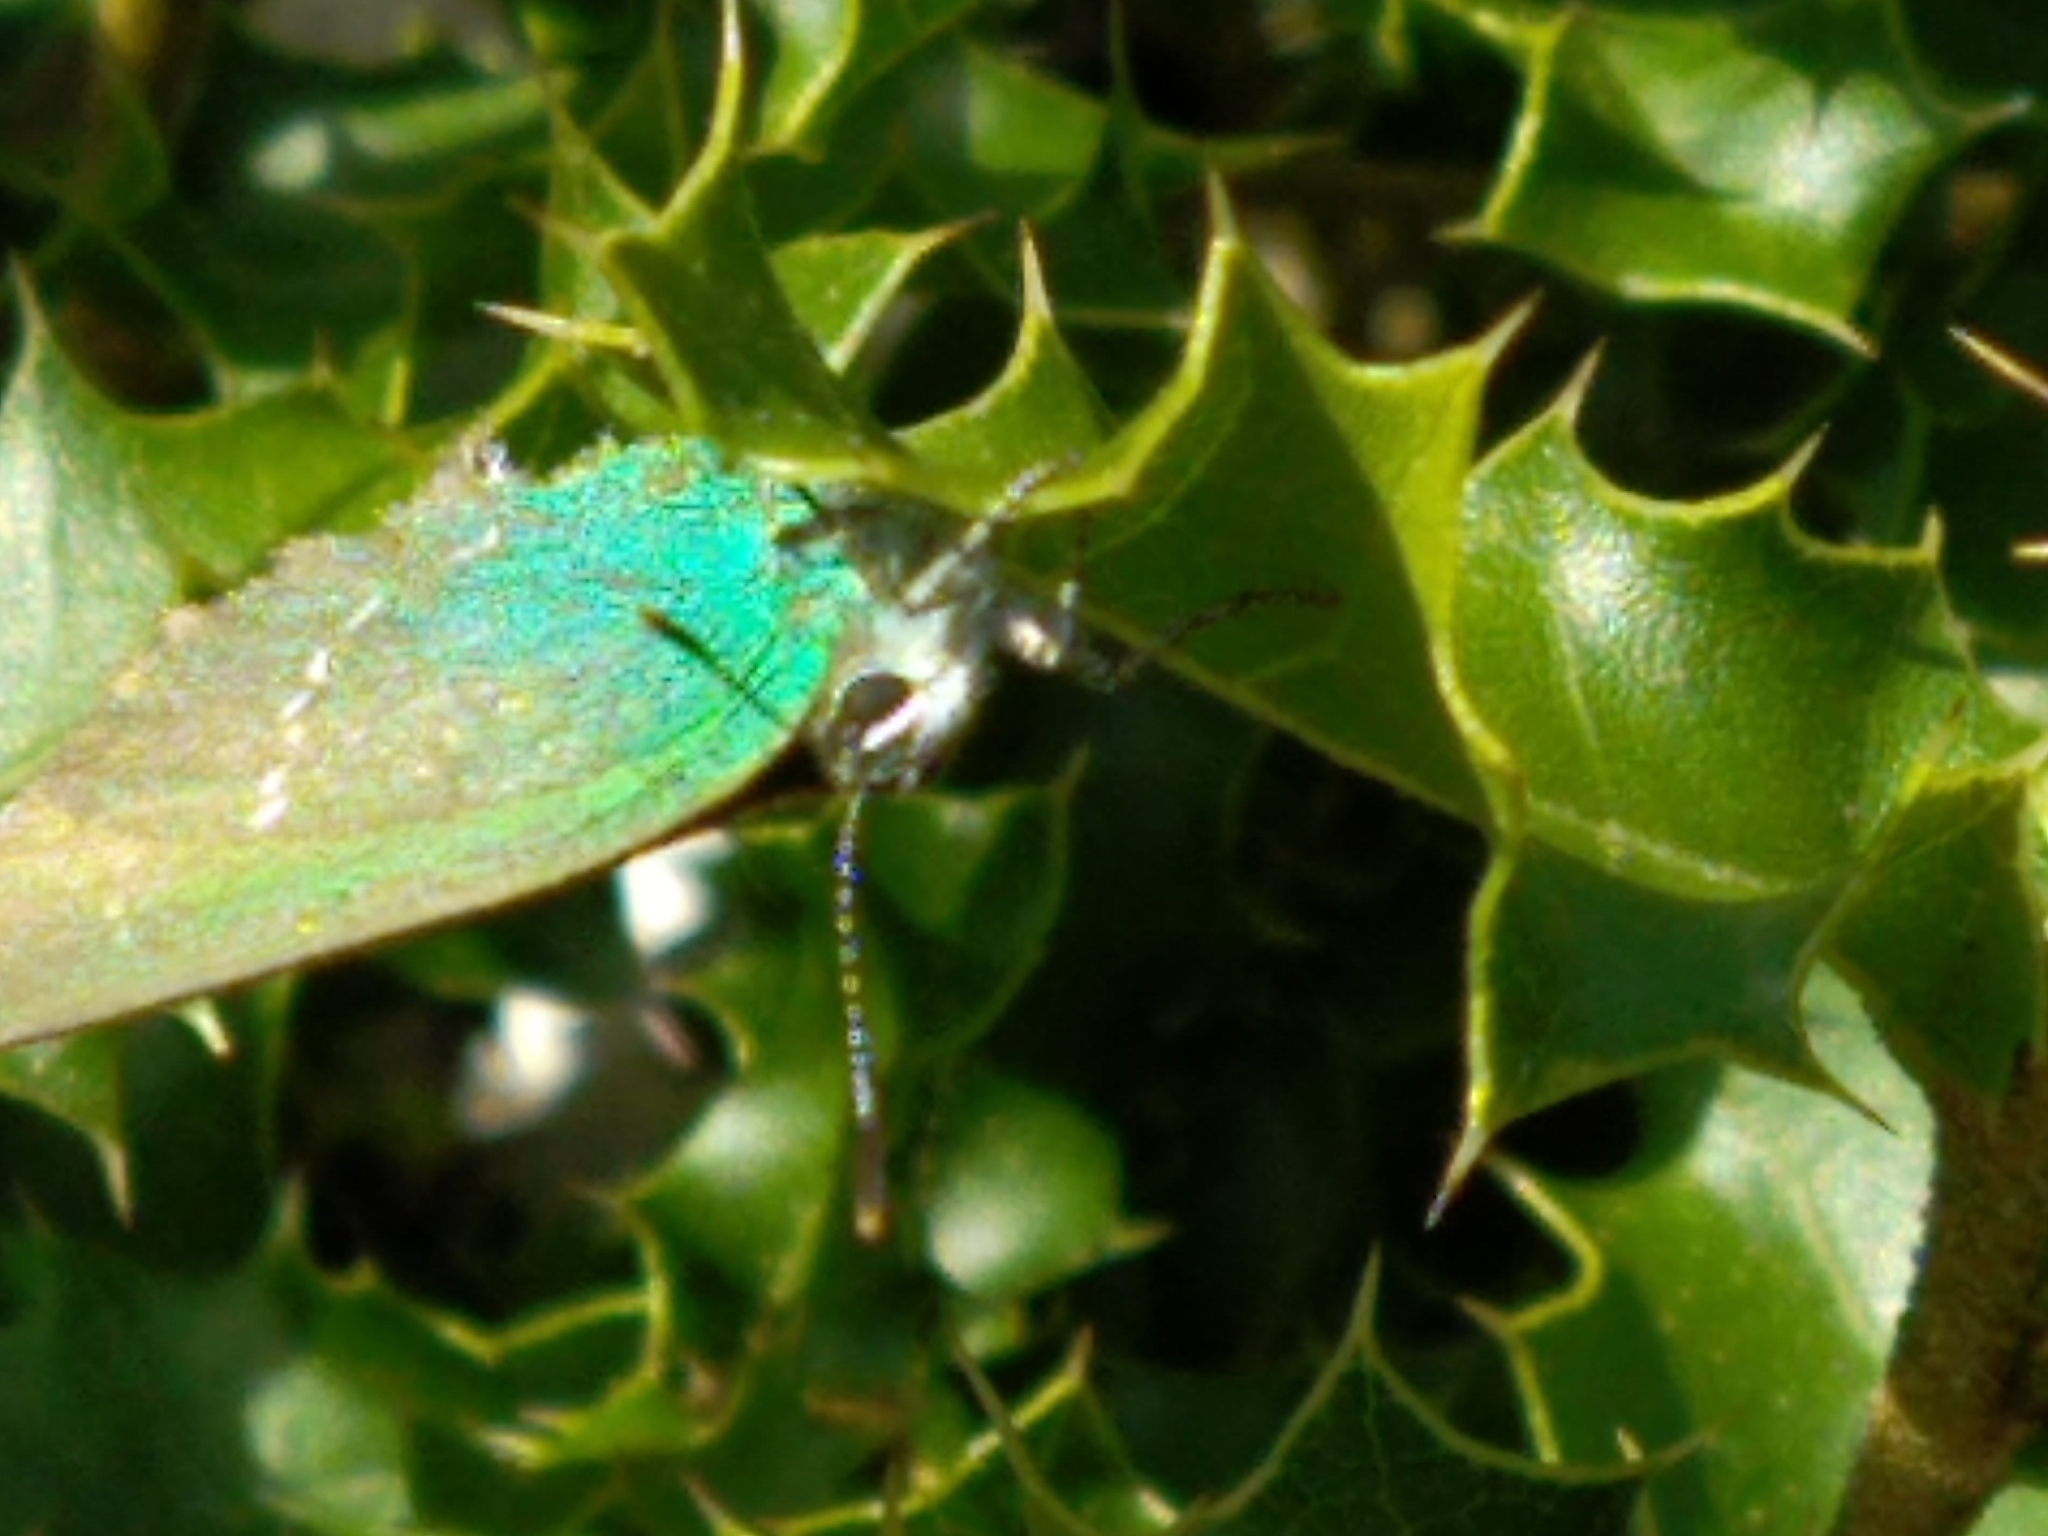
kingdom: Animalia
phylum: Arthropoda
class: Insecta
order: Lepidoptera
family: Lycaenidae
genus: Callophrys
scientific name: Callophrys rubi
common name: Green hairstreak
